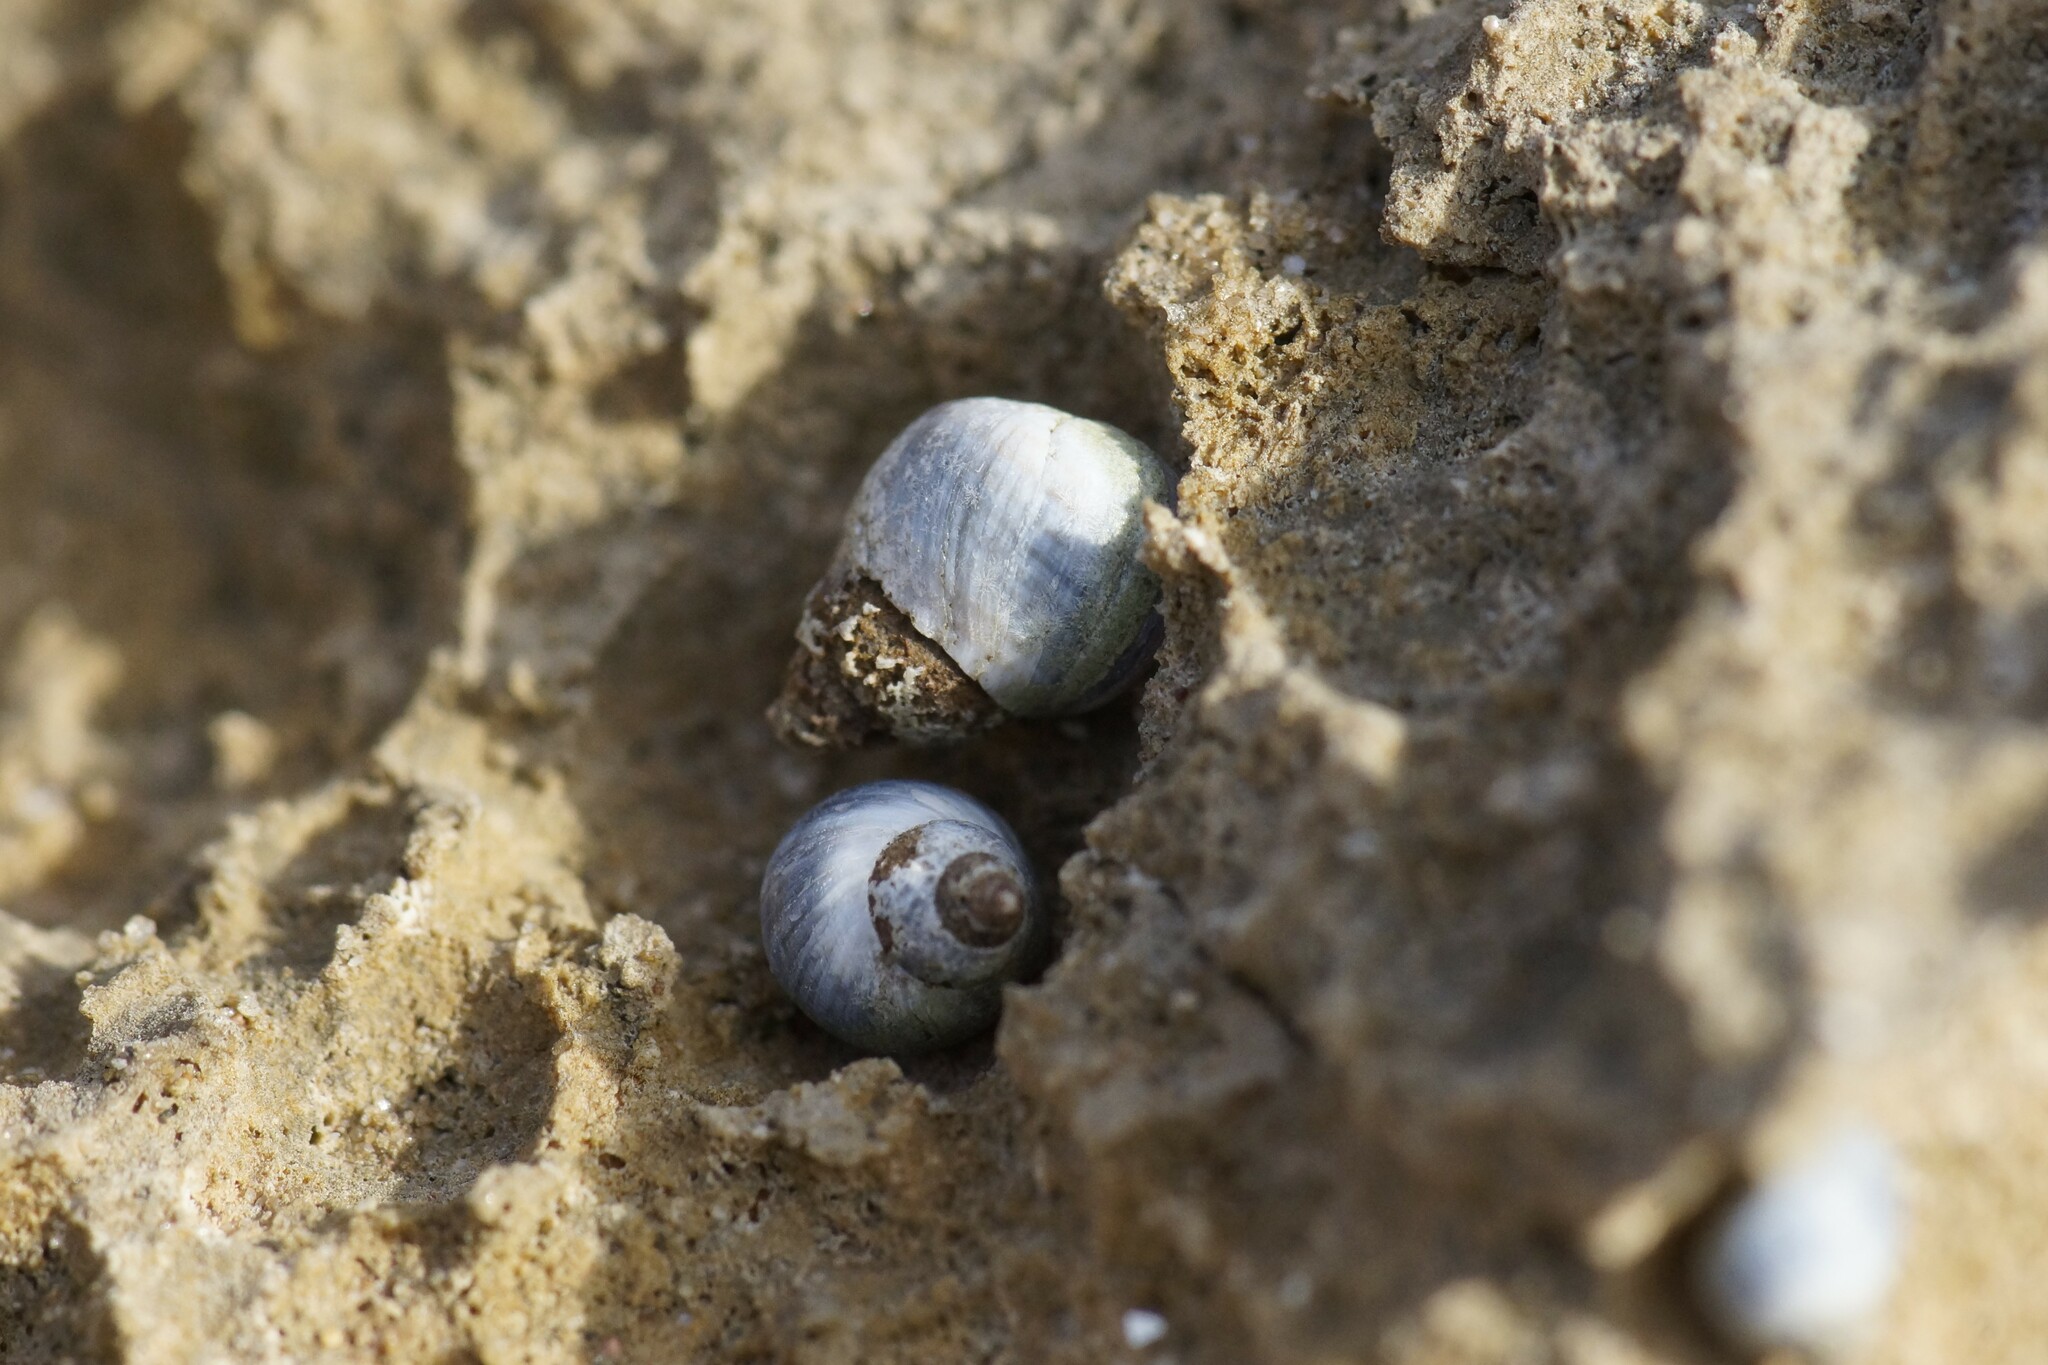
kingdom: Animalia
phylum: Mollusca
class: Gastropoda
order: Littorinimorpha
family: Littorinidae
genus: Austrolittorina
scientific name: Austrolittorina unifasciata
